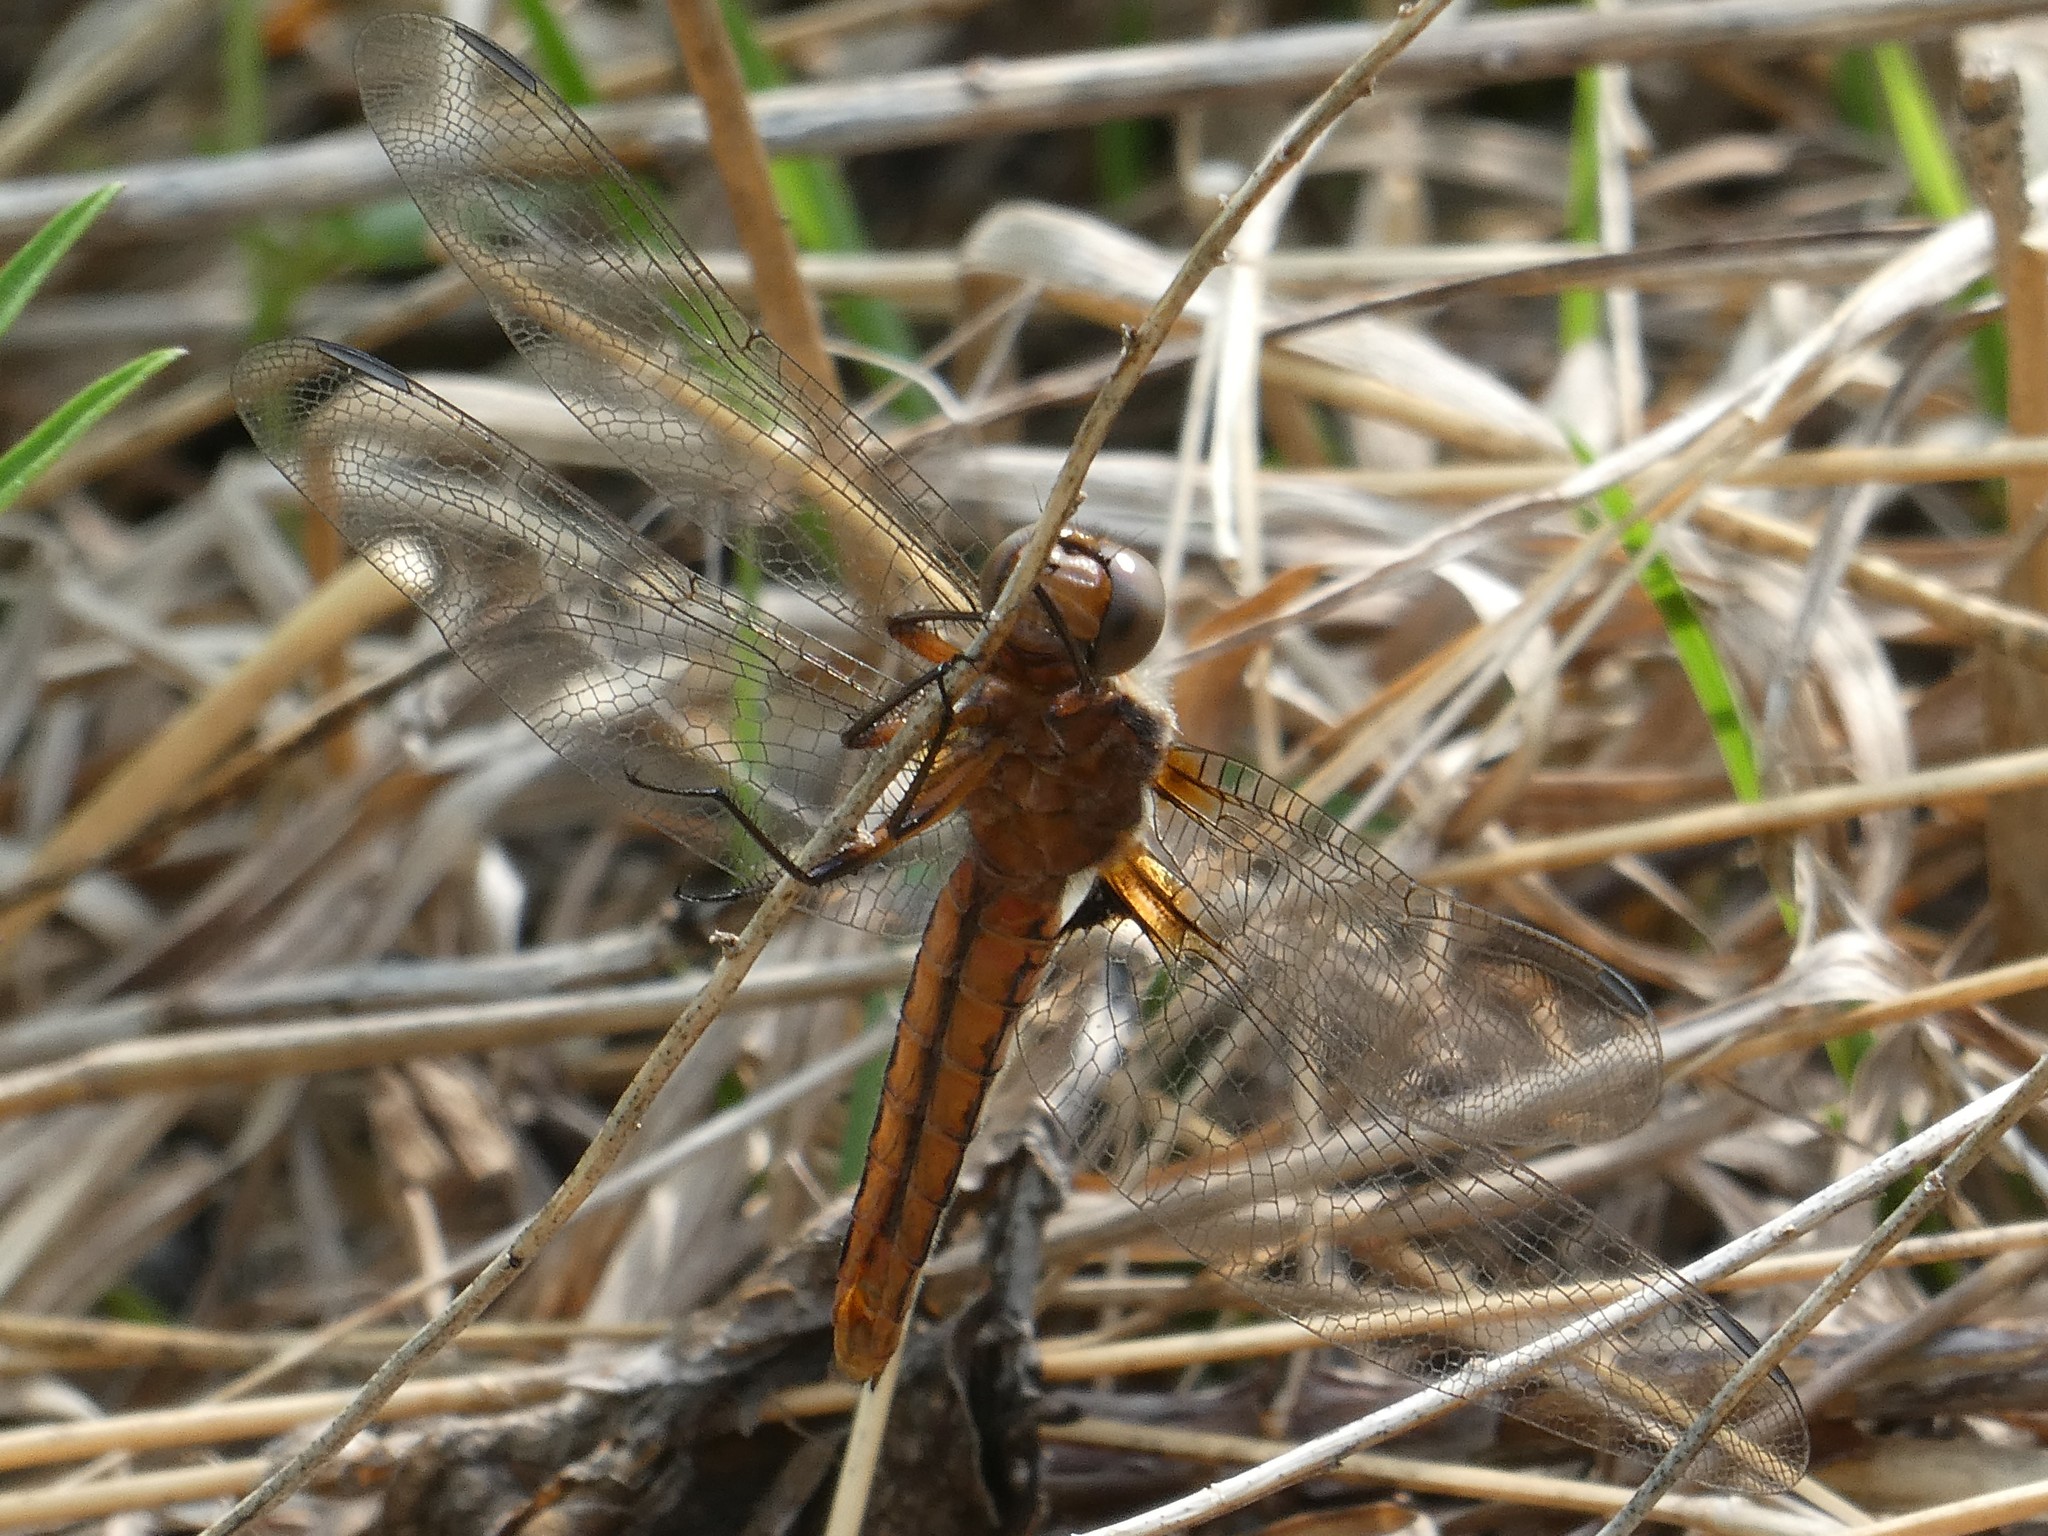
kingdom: Animalia
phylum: Arthropoda
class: Insecta
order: Odonata
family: Libellulidae
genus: Ladona
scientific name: Ladona julia
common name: Chalk-fronted corporal
